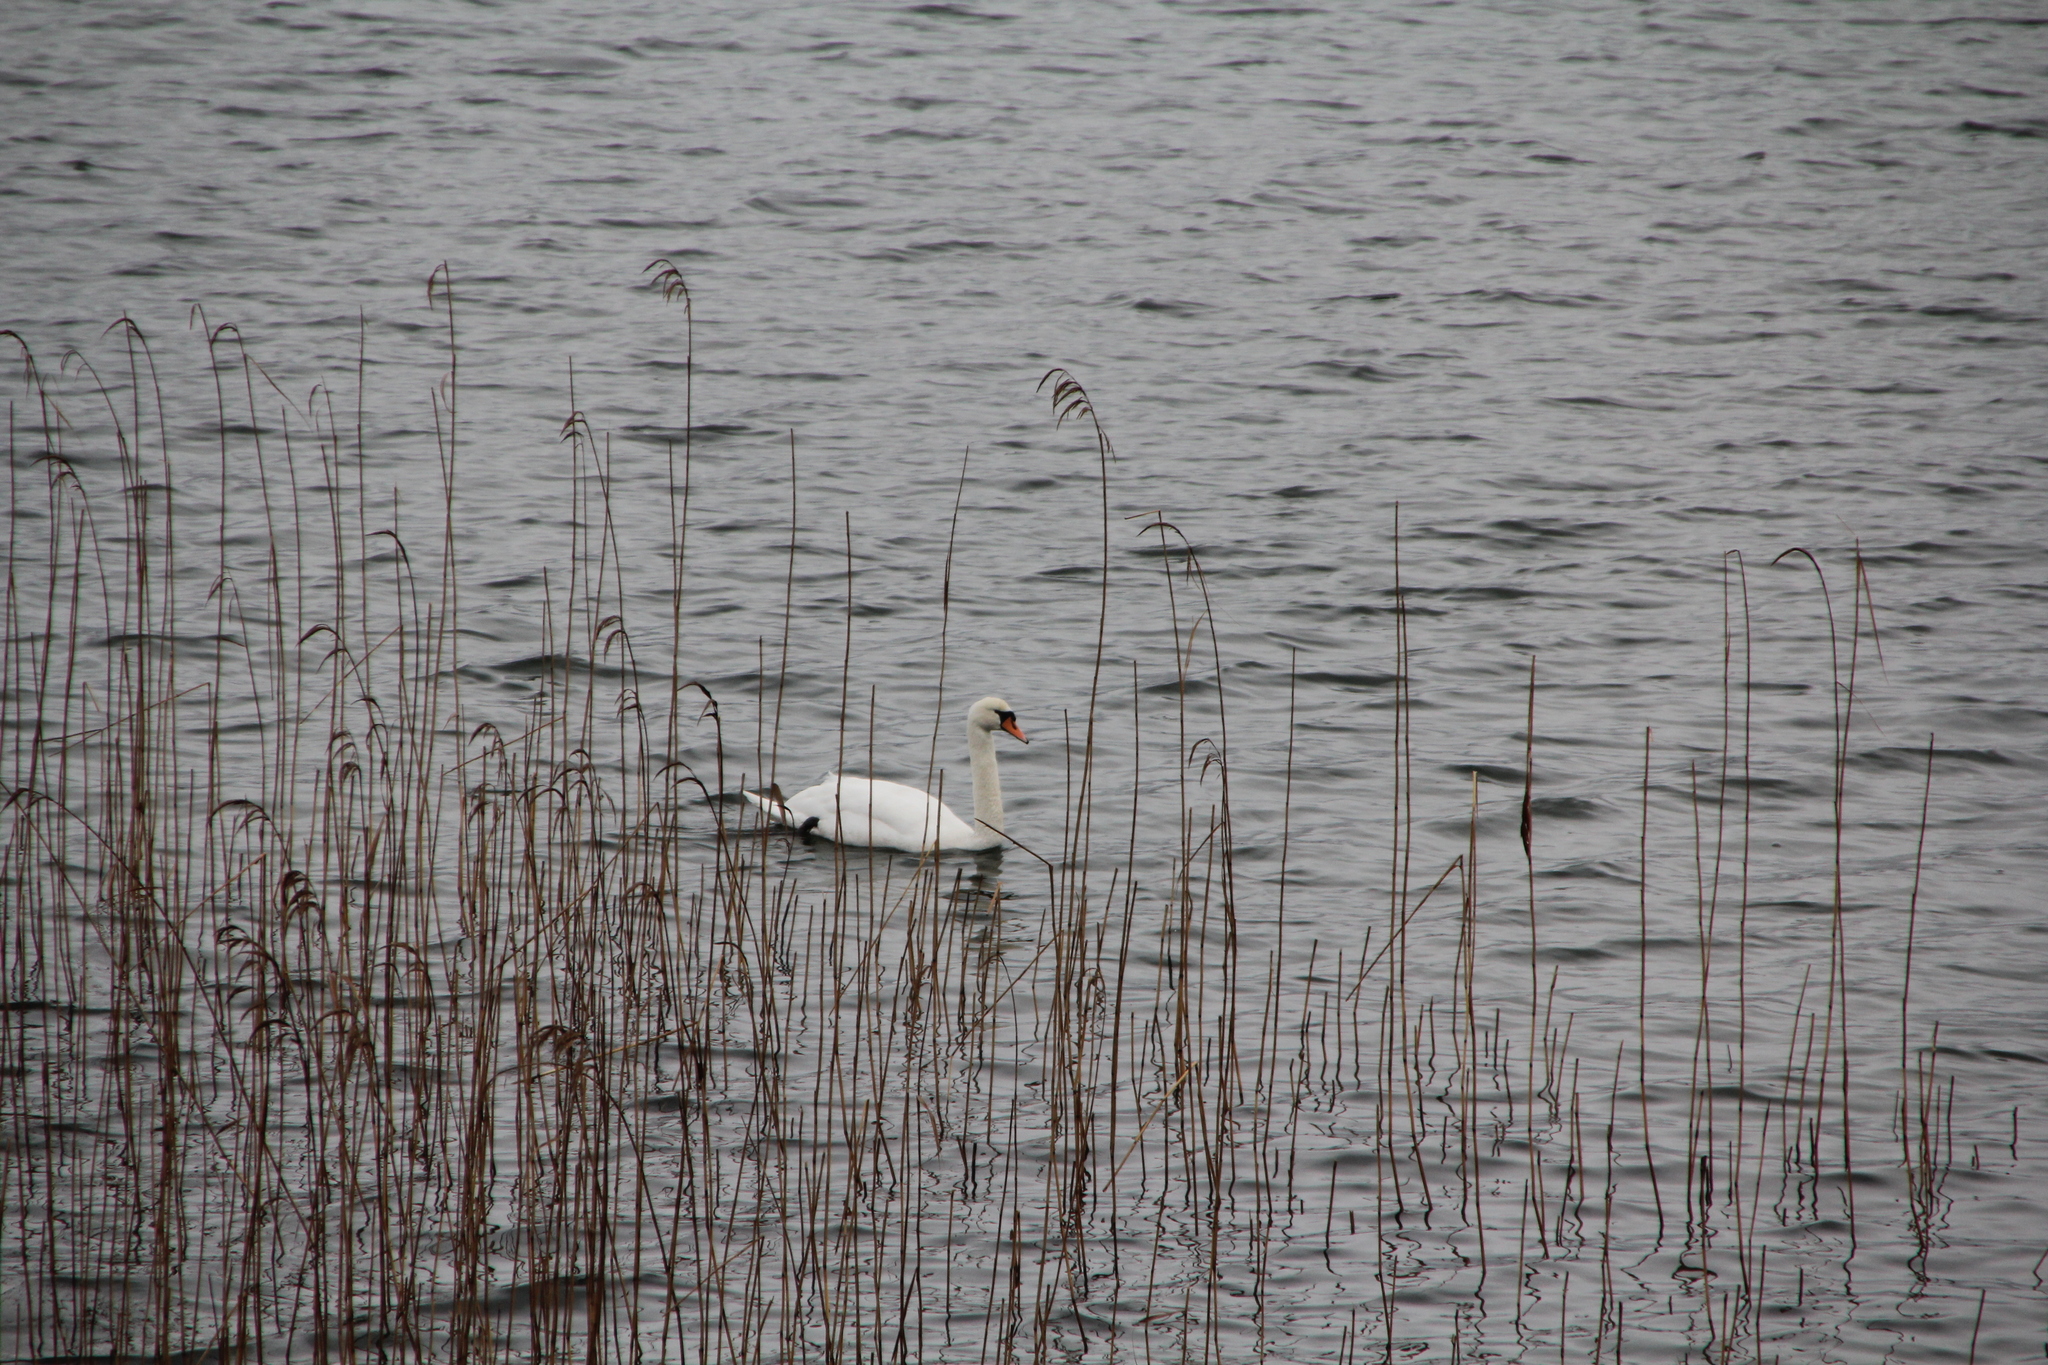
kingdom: Animalia
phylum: Chordata
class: Aves
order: Anseriformes
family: Anatidae
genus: Cygnus
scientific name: Cygnus olor
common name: Mute swan
